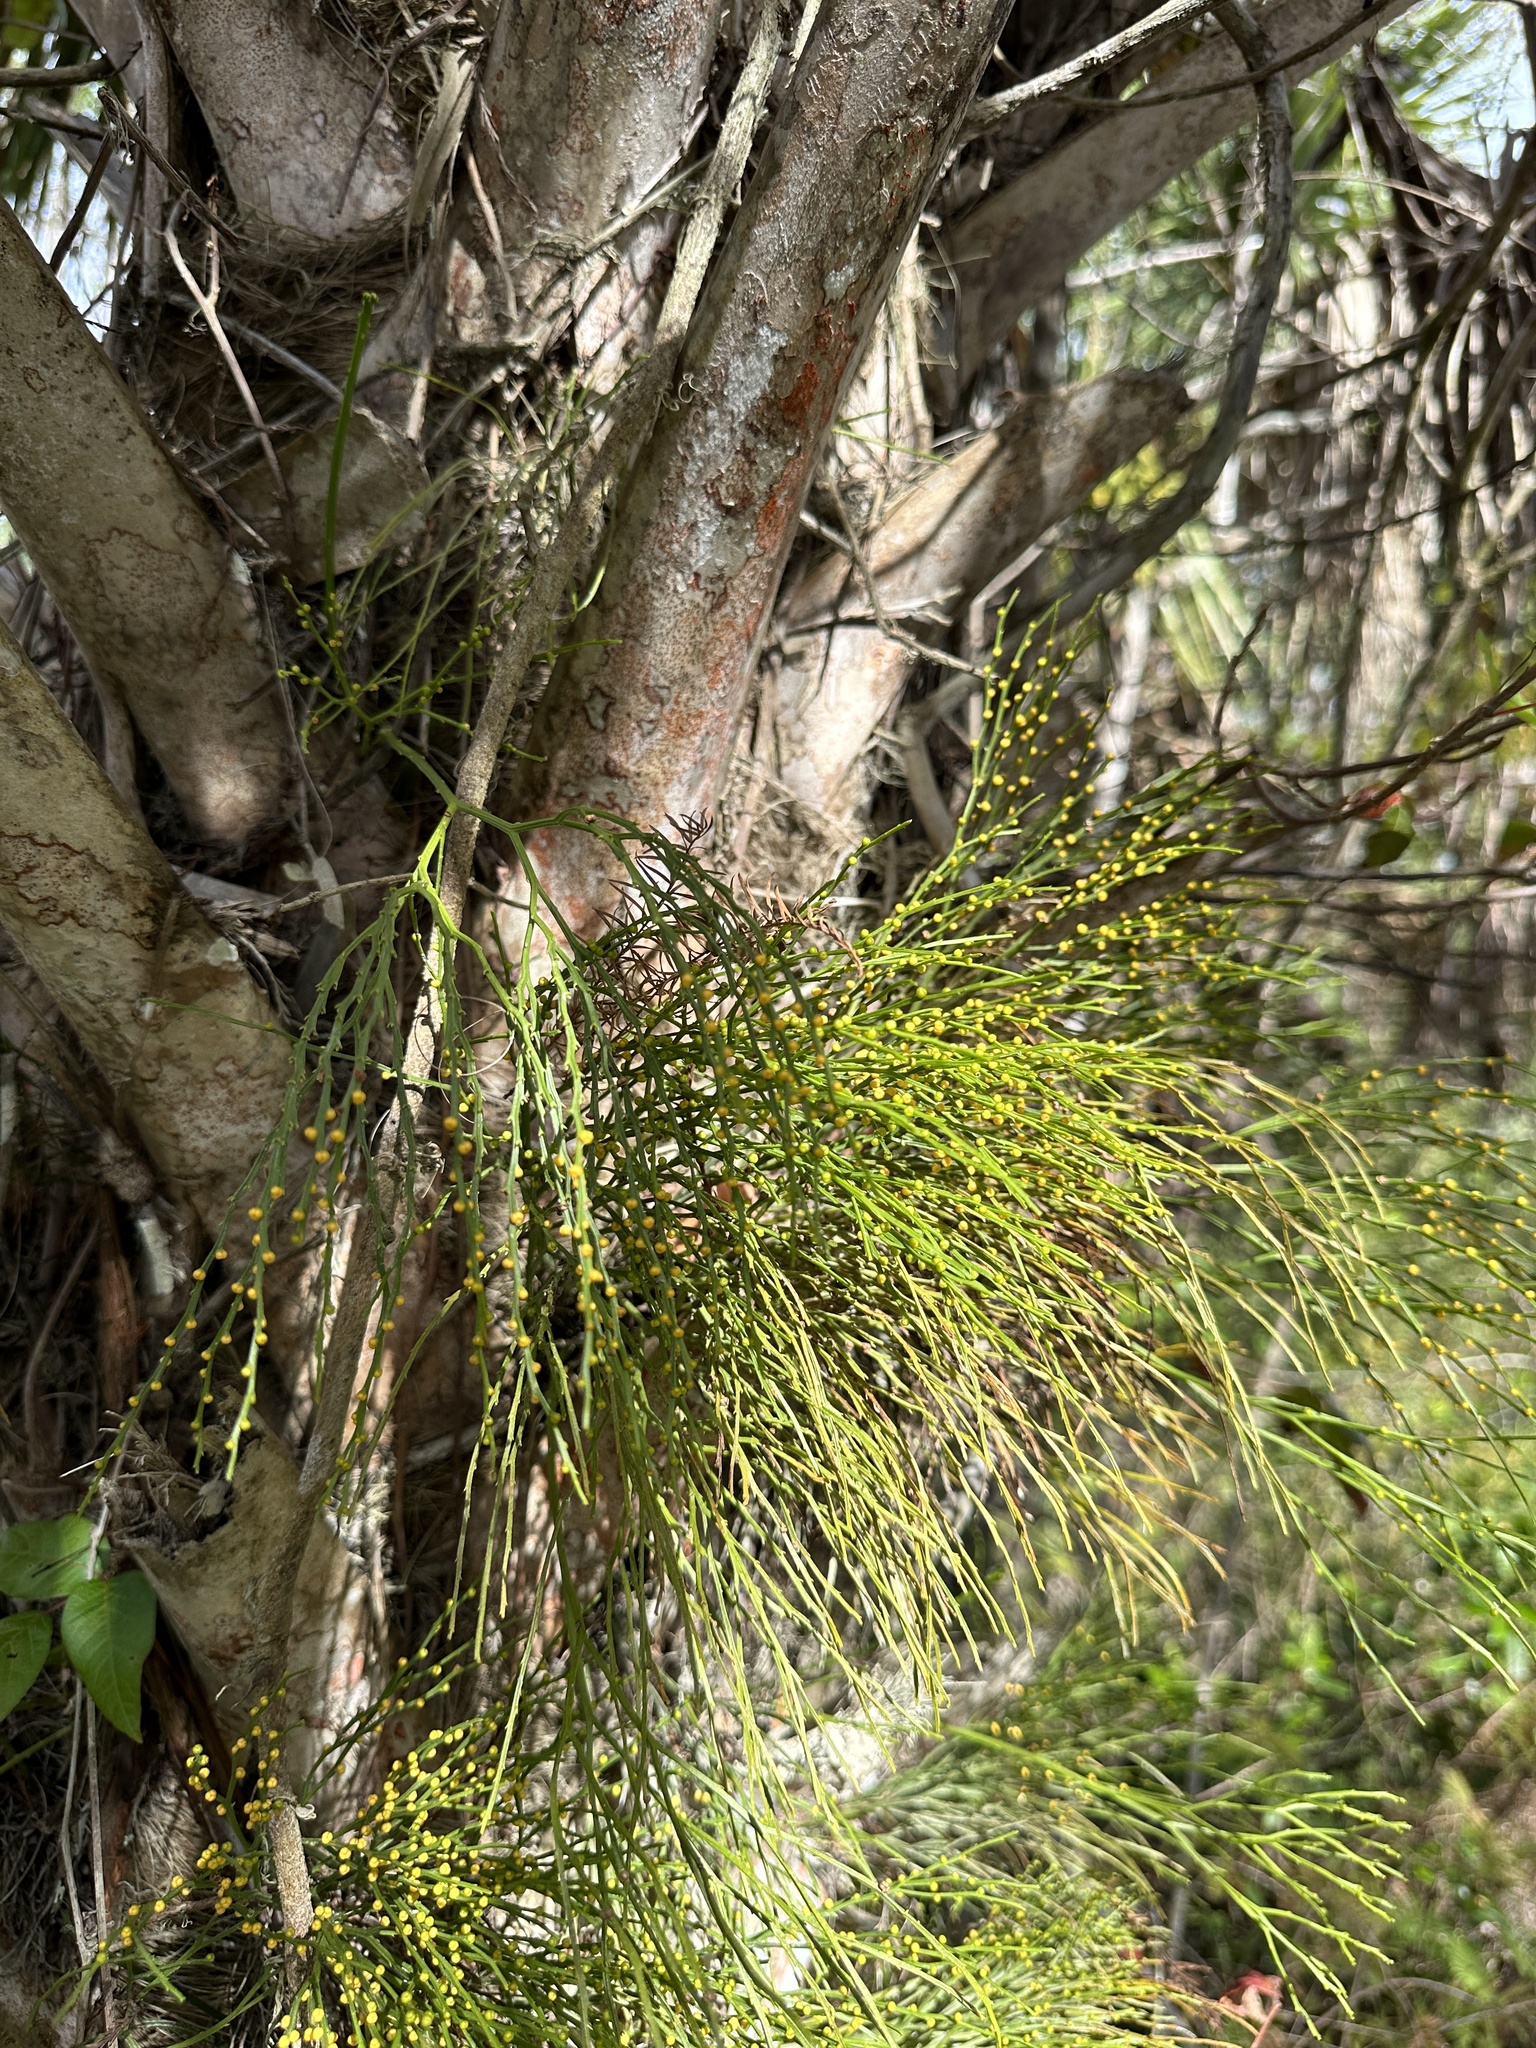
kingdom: Plantae
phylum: Tracheophyta
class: Polypodiopsida
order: Psilotales
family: Psilotaceae
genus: Psilotum
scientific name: Psilotum nudum
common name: Skeleton fork fern
